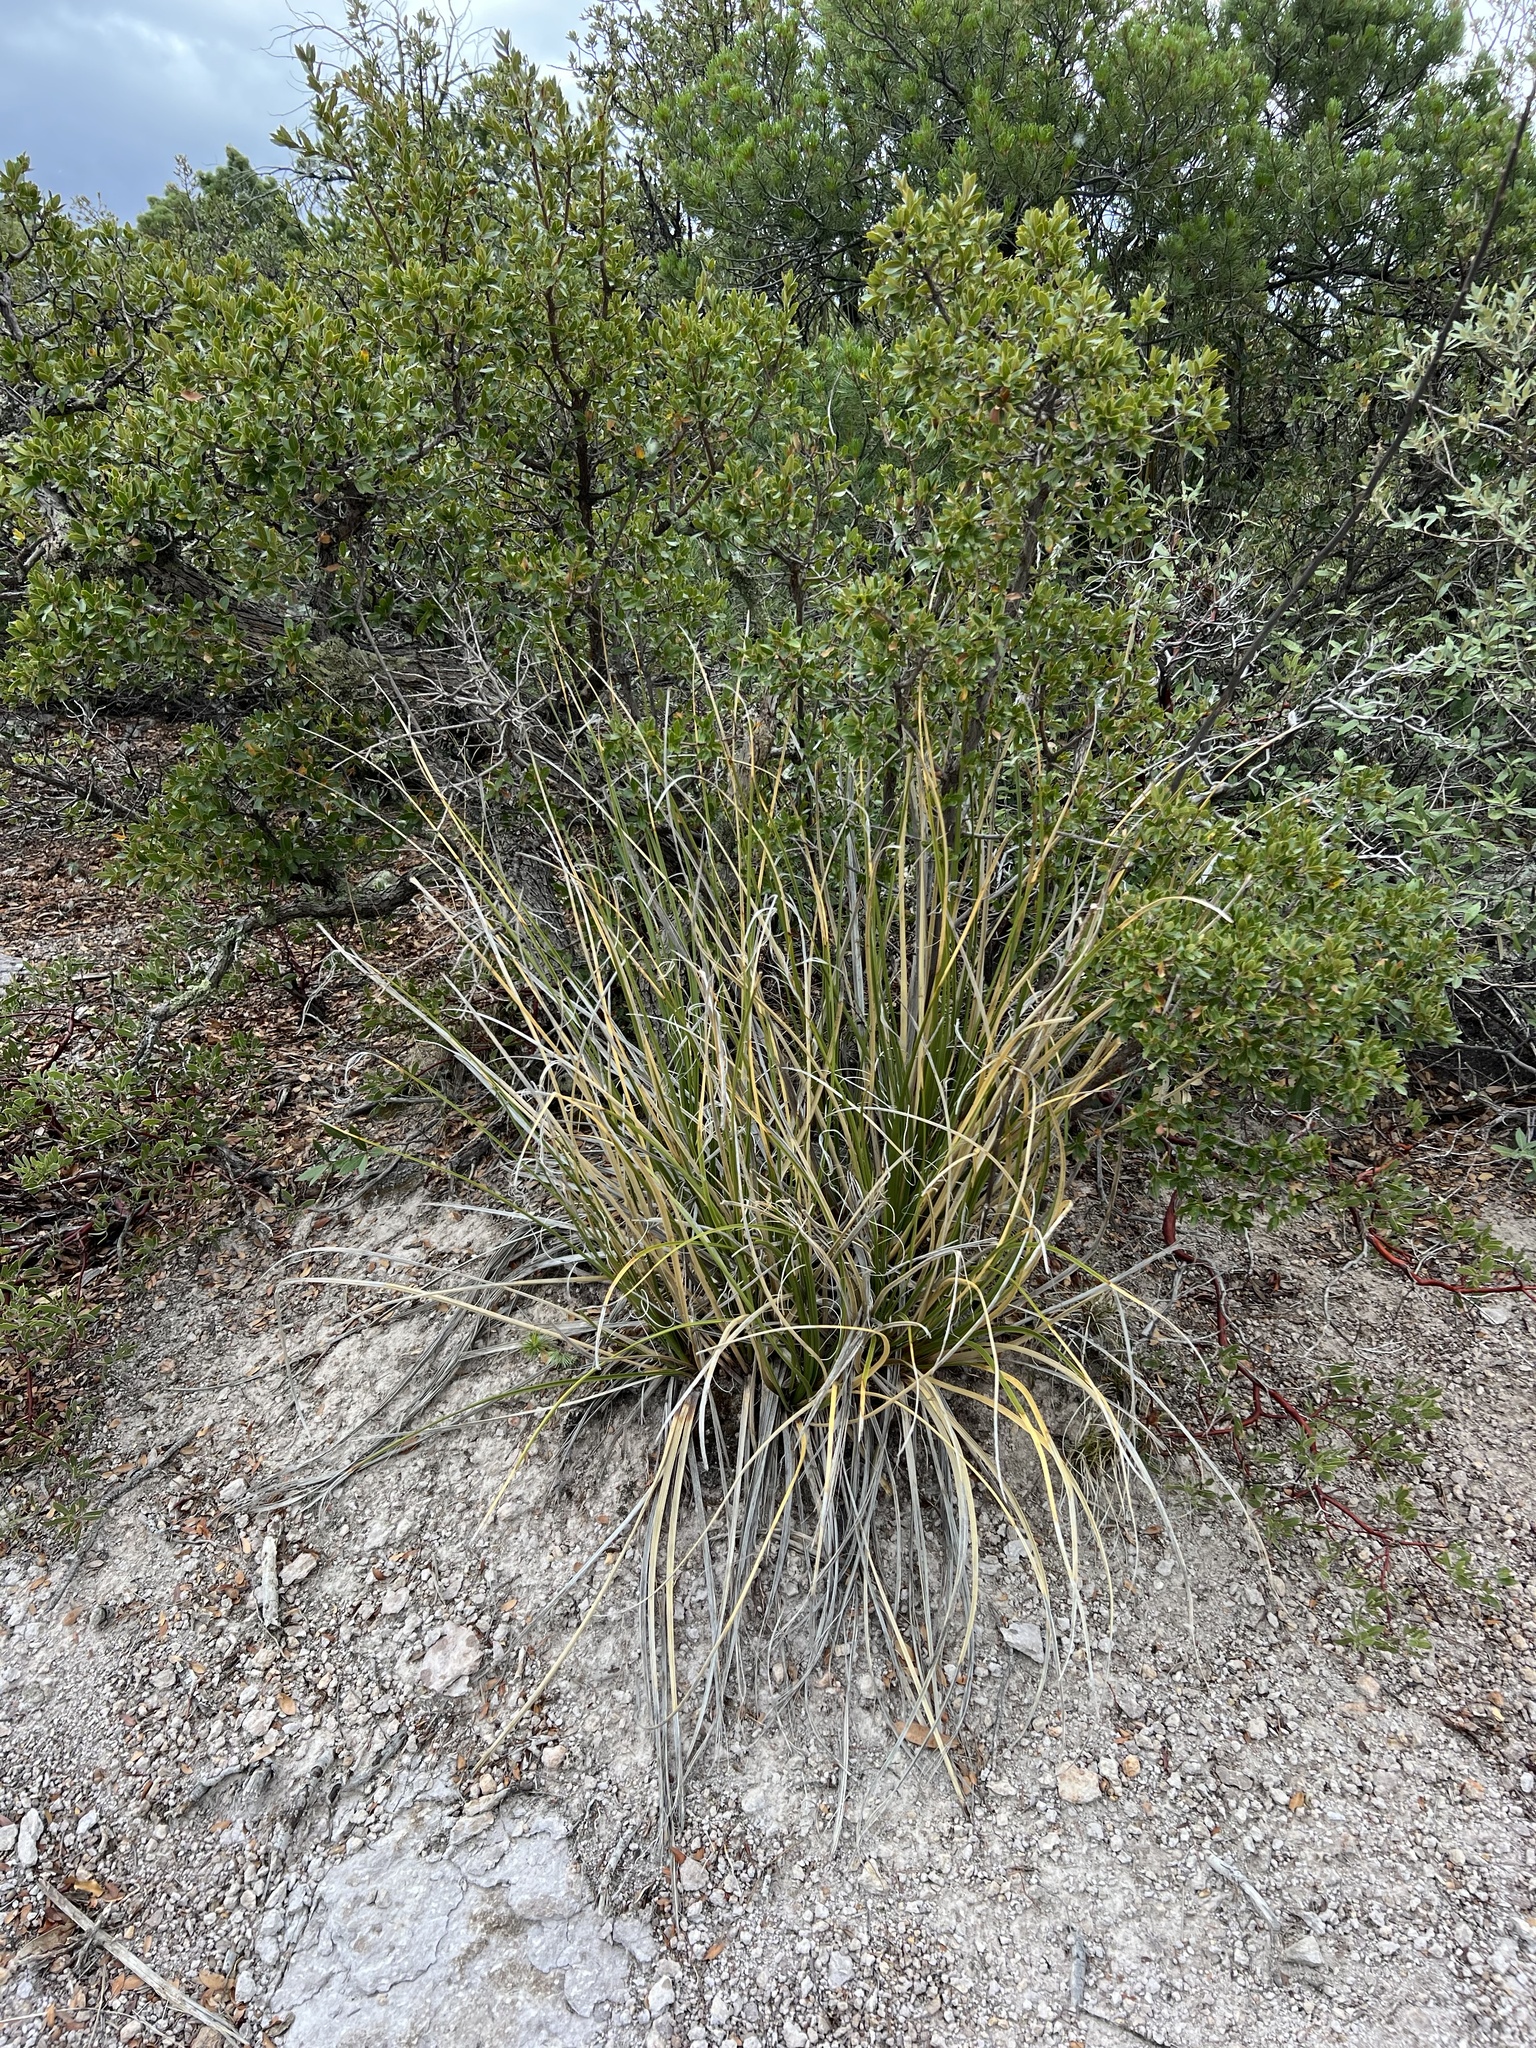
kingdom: Plantae
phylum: Tracheophyta
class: Liliopsida
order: Asparagales
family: Asparagaceae
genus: Nolina
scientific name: Nolina microcarpa
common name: Bear-grass
